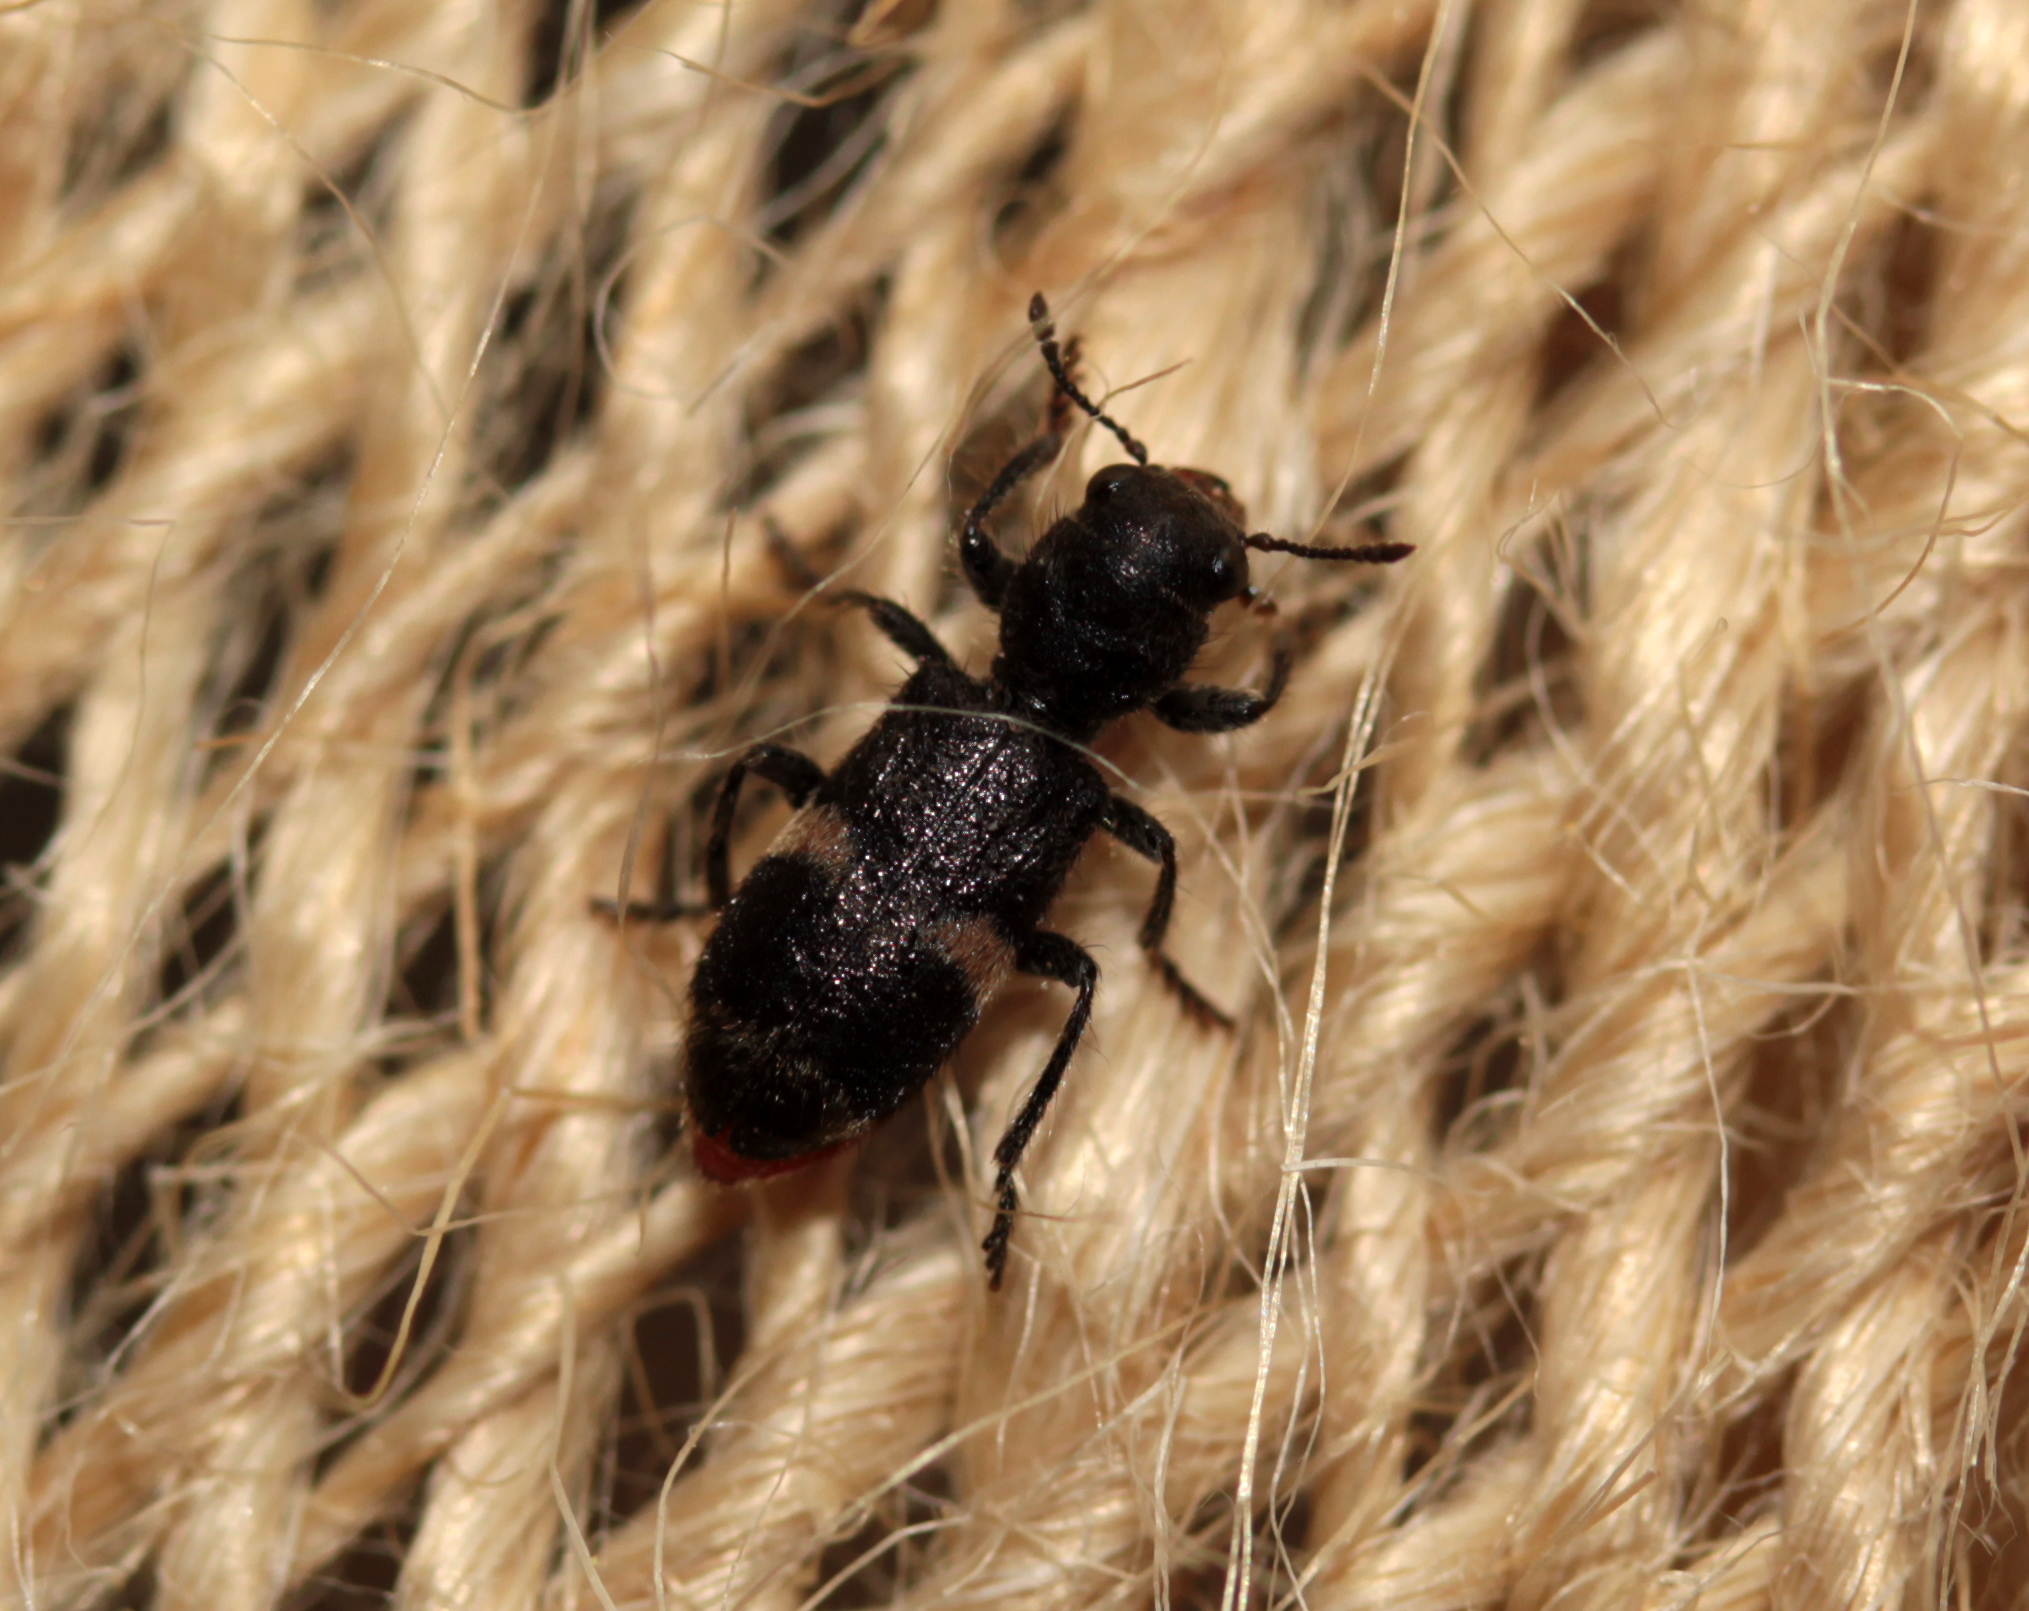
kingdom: Animalia
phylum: Arthropoda
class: Insecta
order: Coleoptera
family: Cleridae
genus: Enoclerus
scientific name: Enoclerus nigripes
